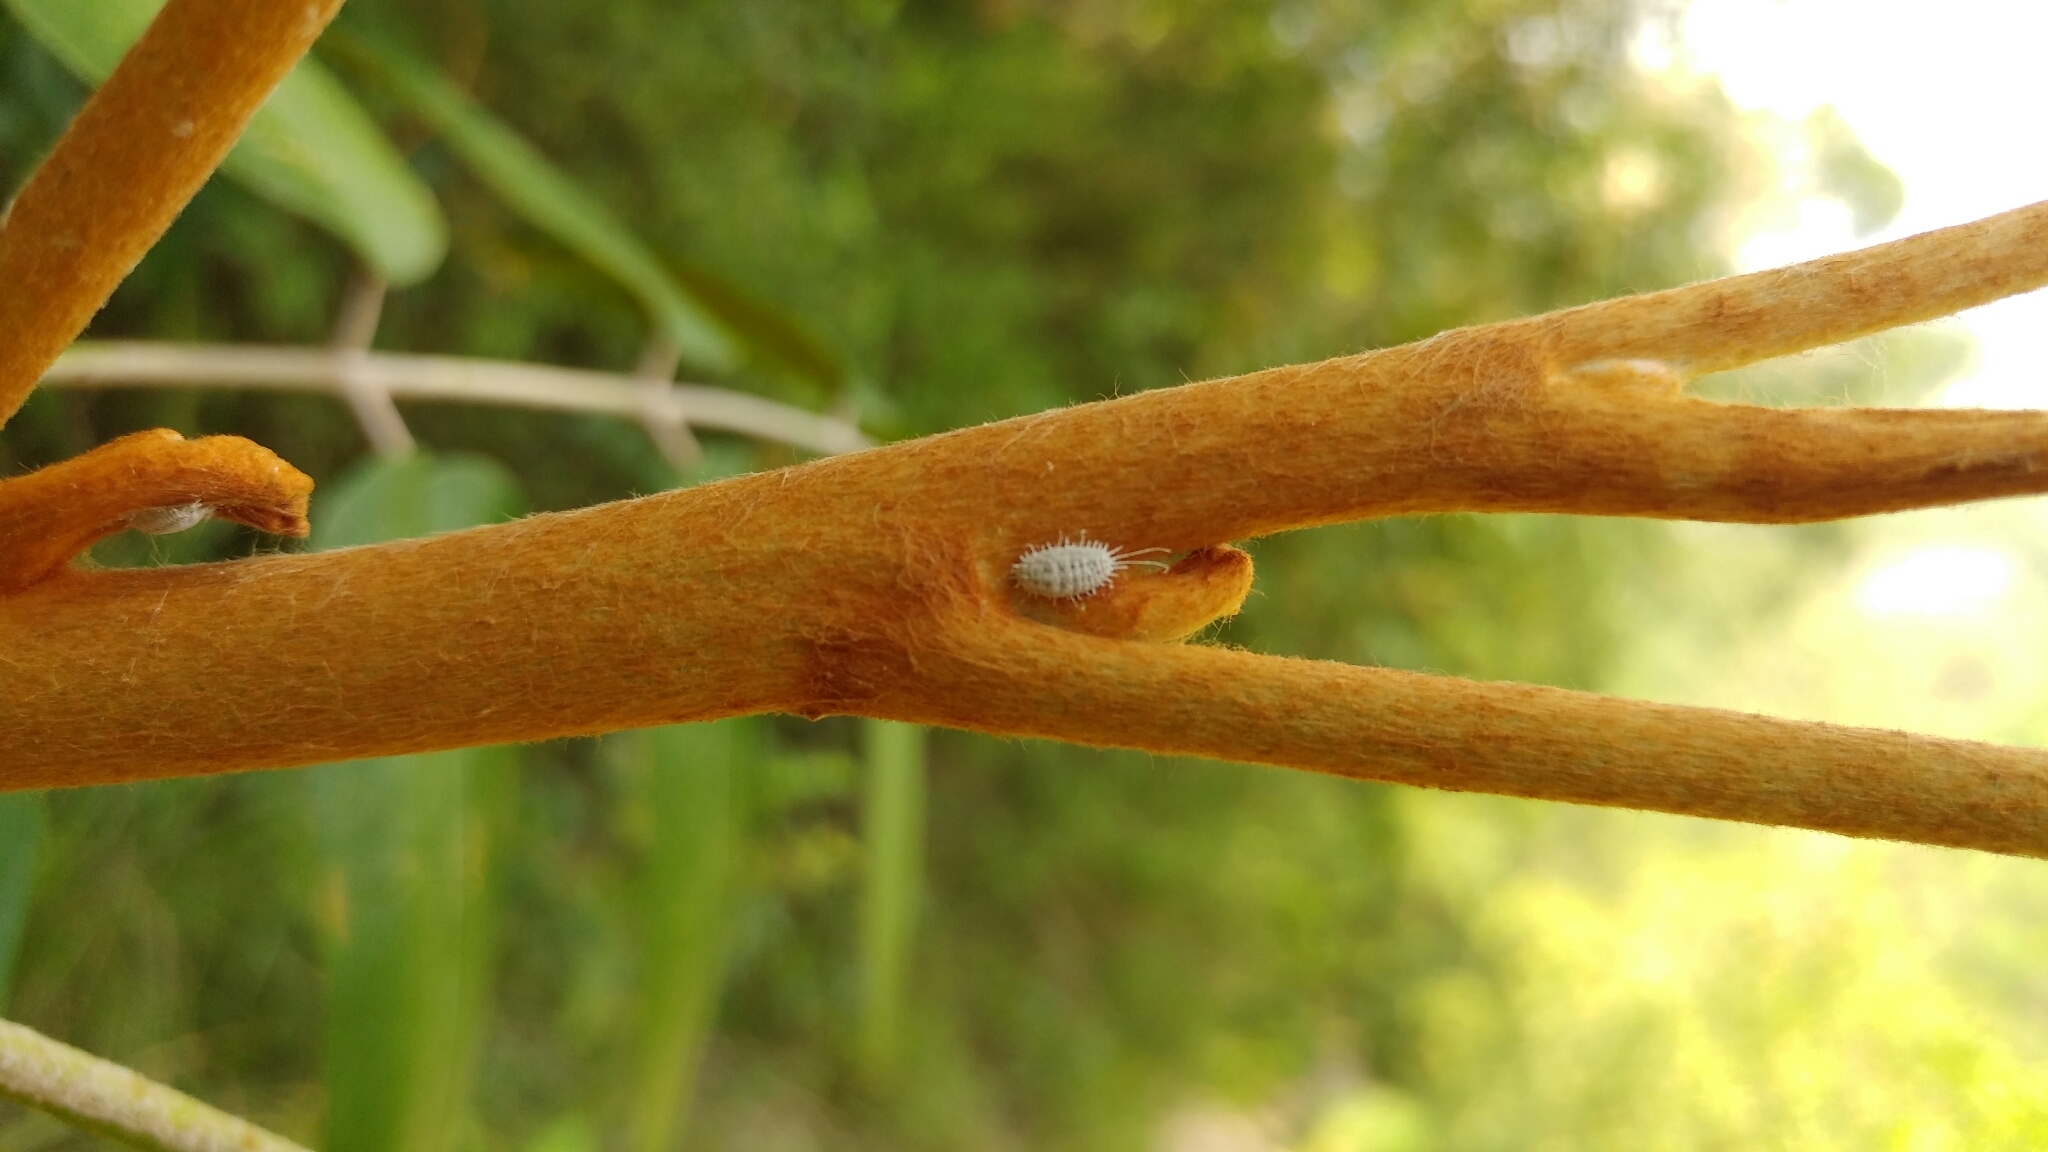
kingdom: Animalia
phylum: Arthropoda
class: Insecta
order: Hemiptera
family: Pseudococcidae
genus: Pseudococcus
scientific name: Pseudococcus longispinus
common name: Long-tailed mealybug
